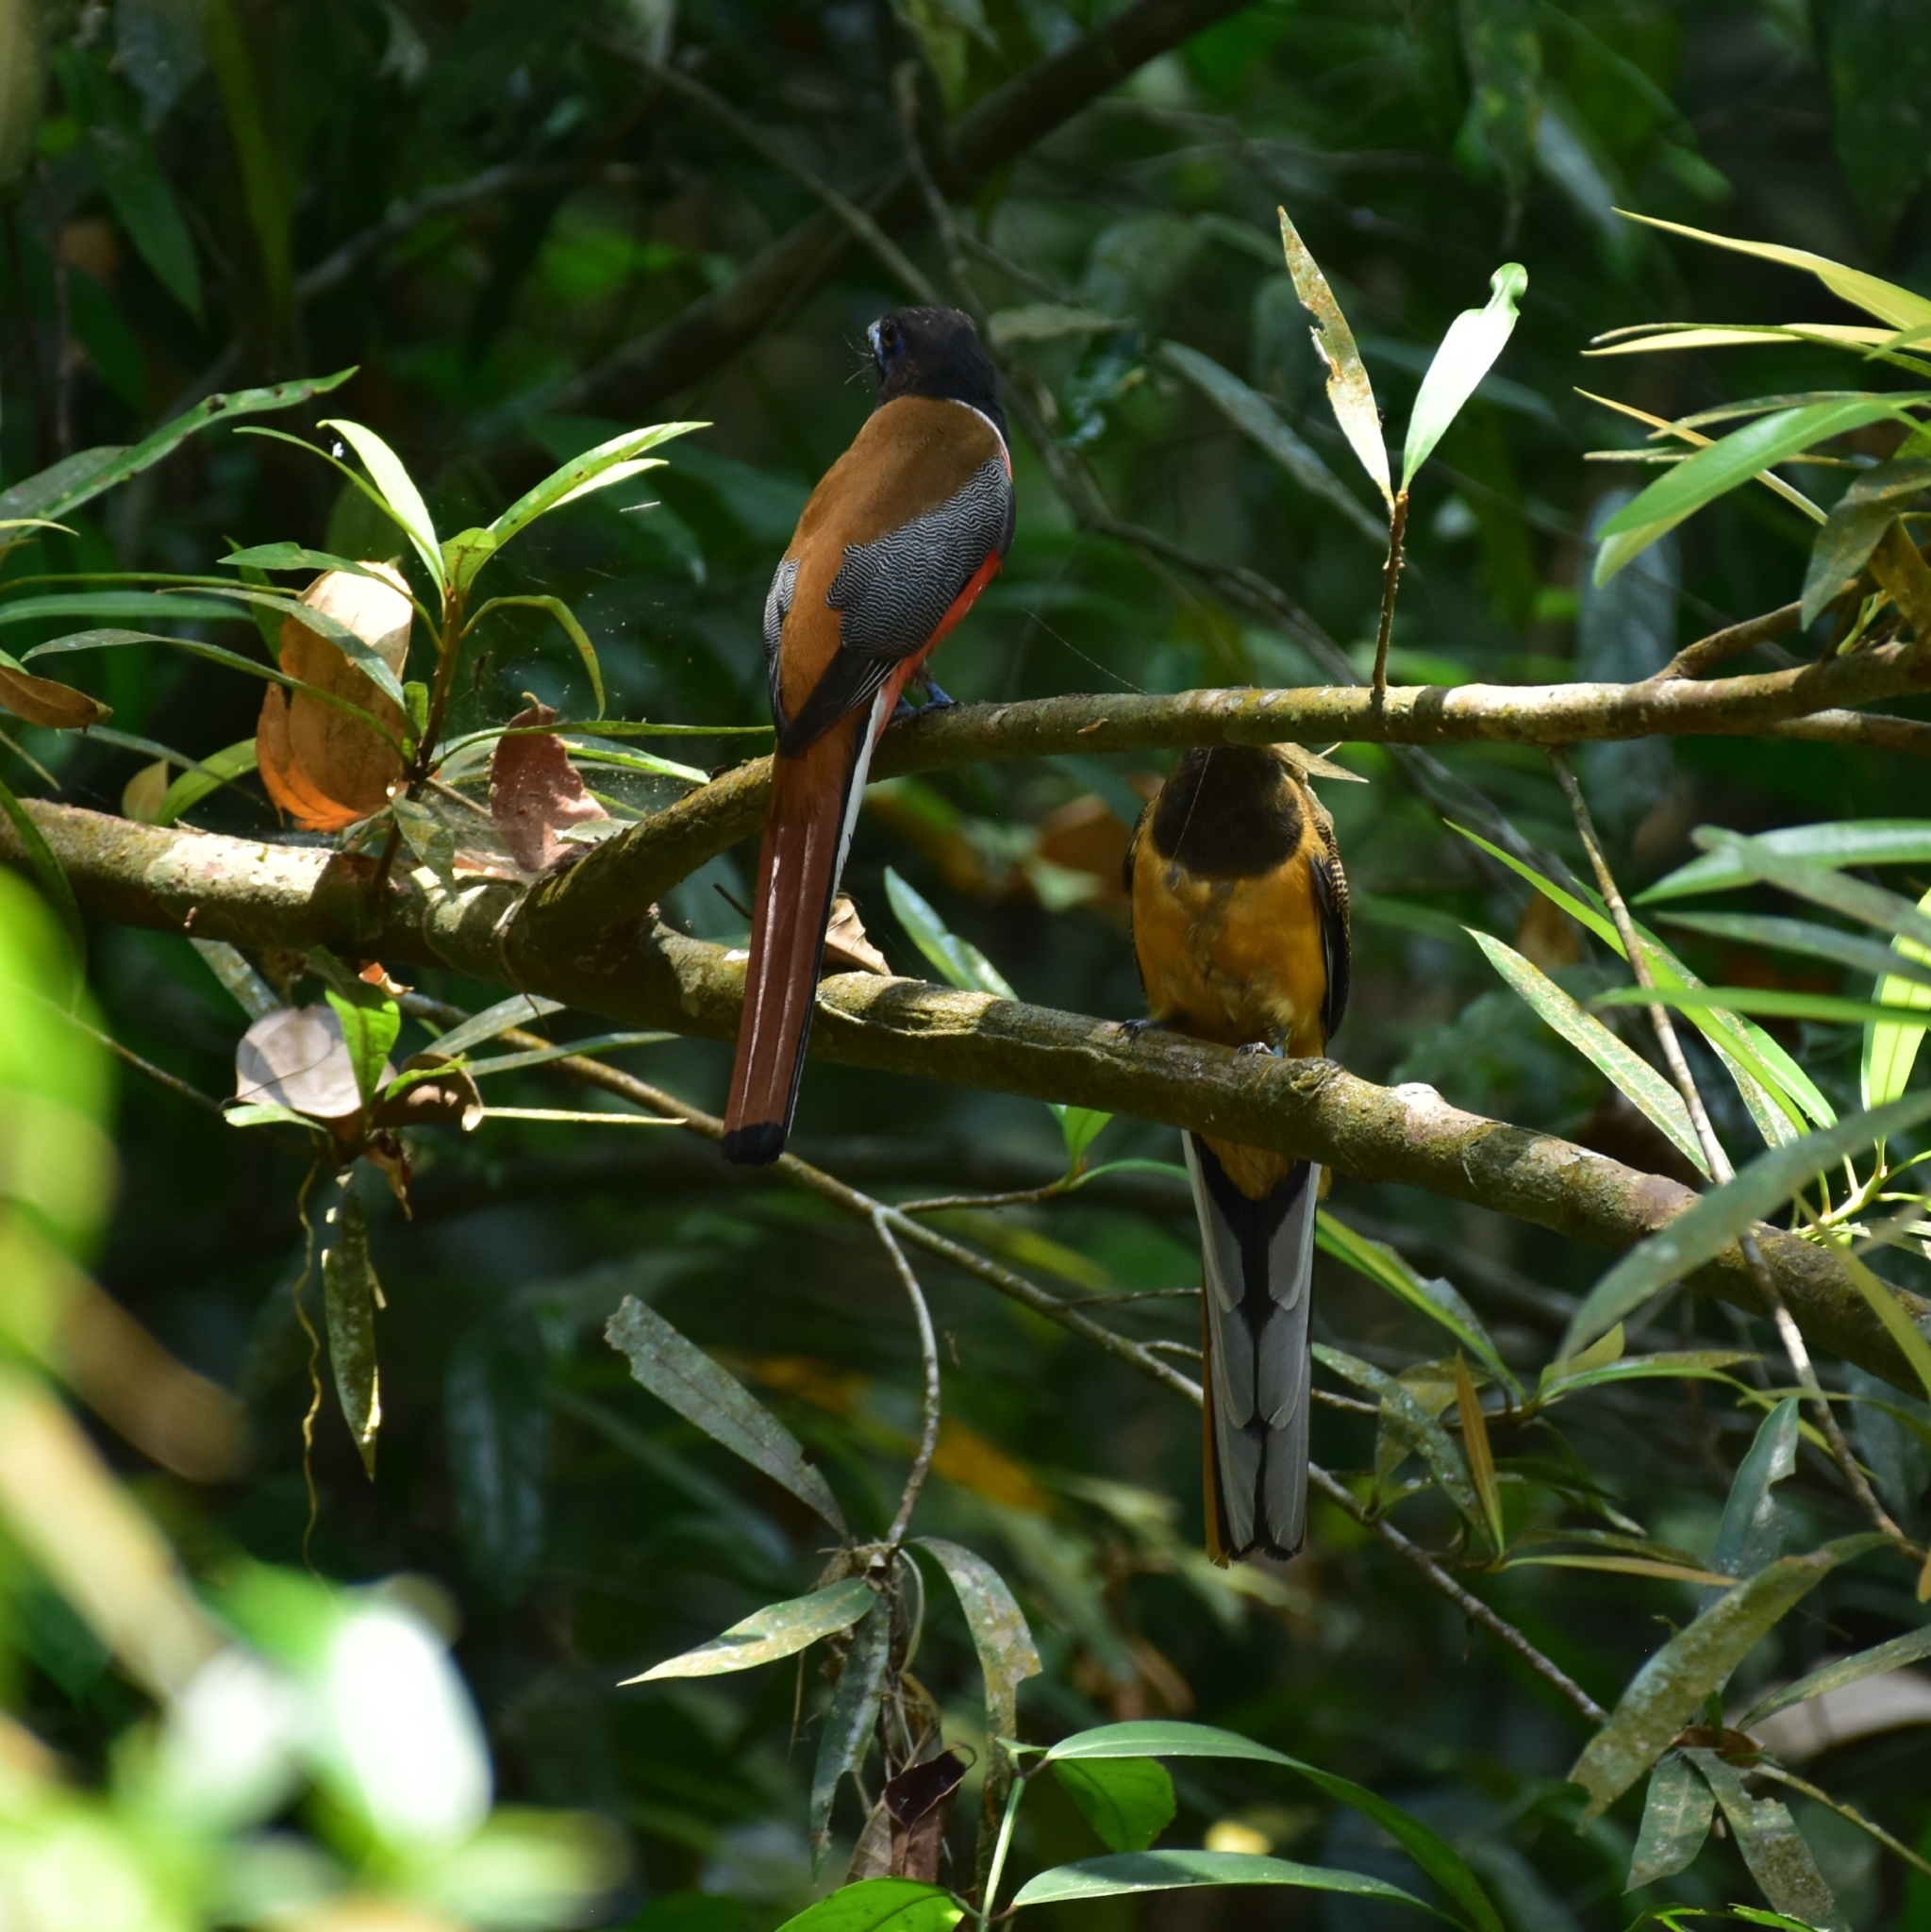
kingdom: Animalia
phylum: Chordata
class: Aves
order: Trogoniformes
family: Trogonidae
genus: Harpactes
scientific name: Harpactes fasciatus
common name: Malabar trogon
